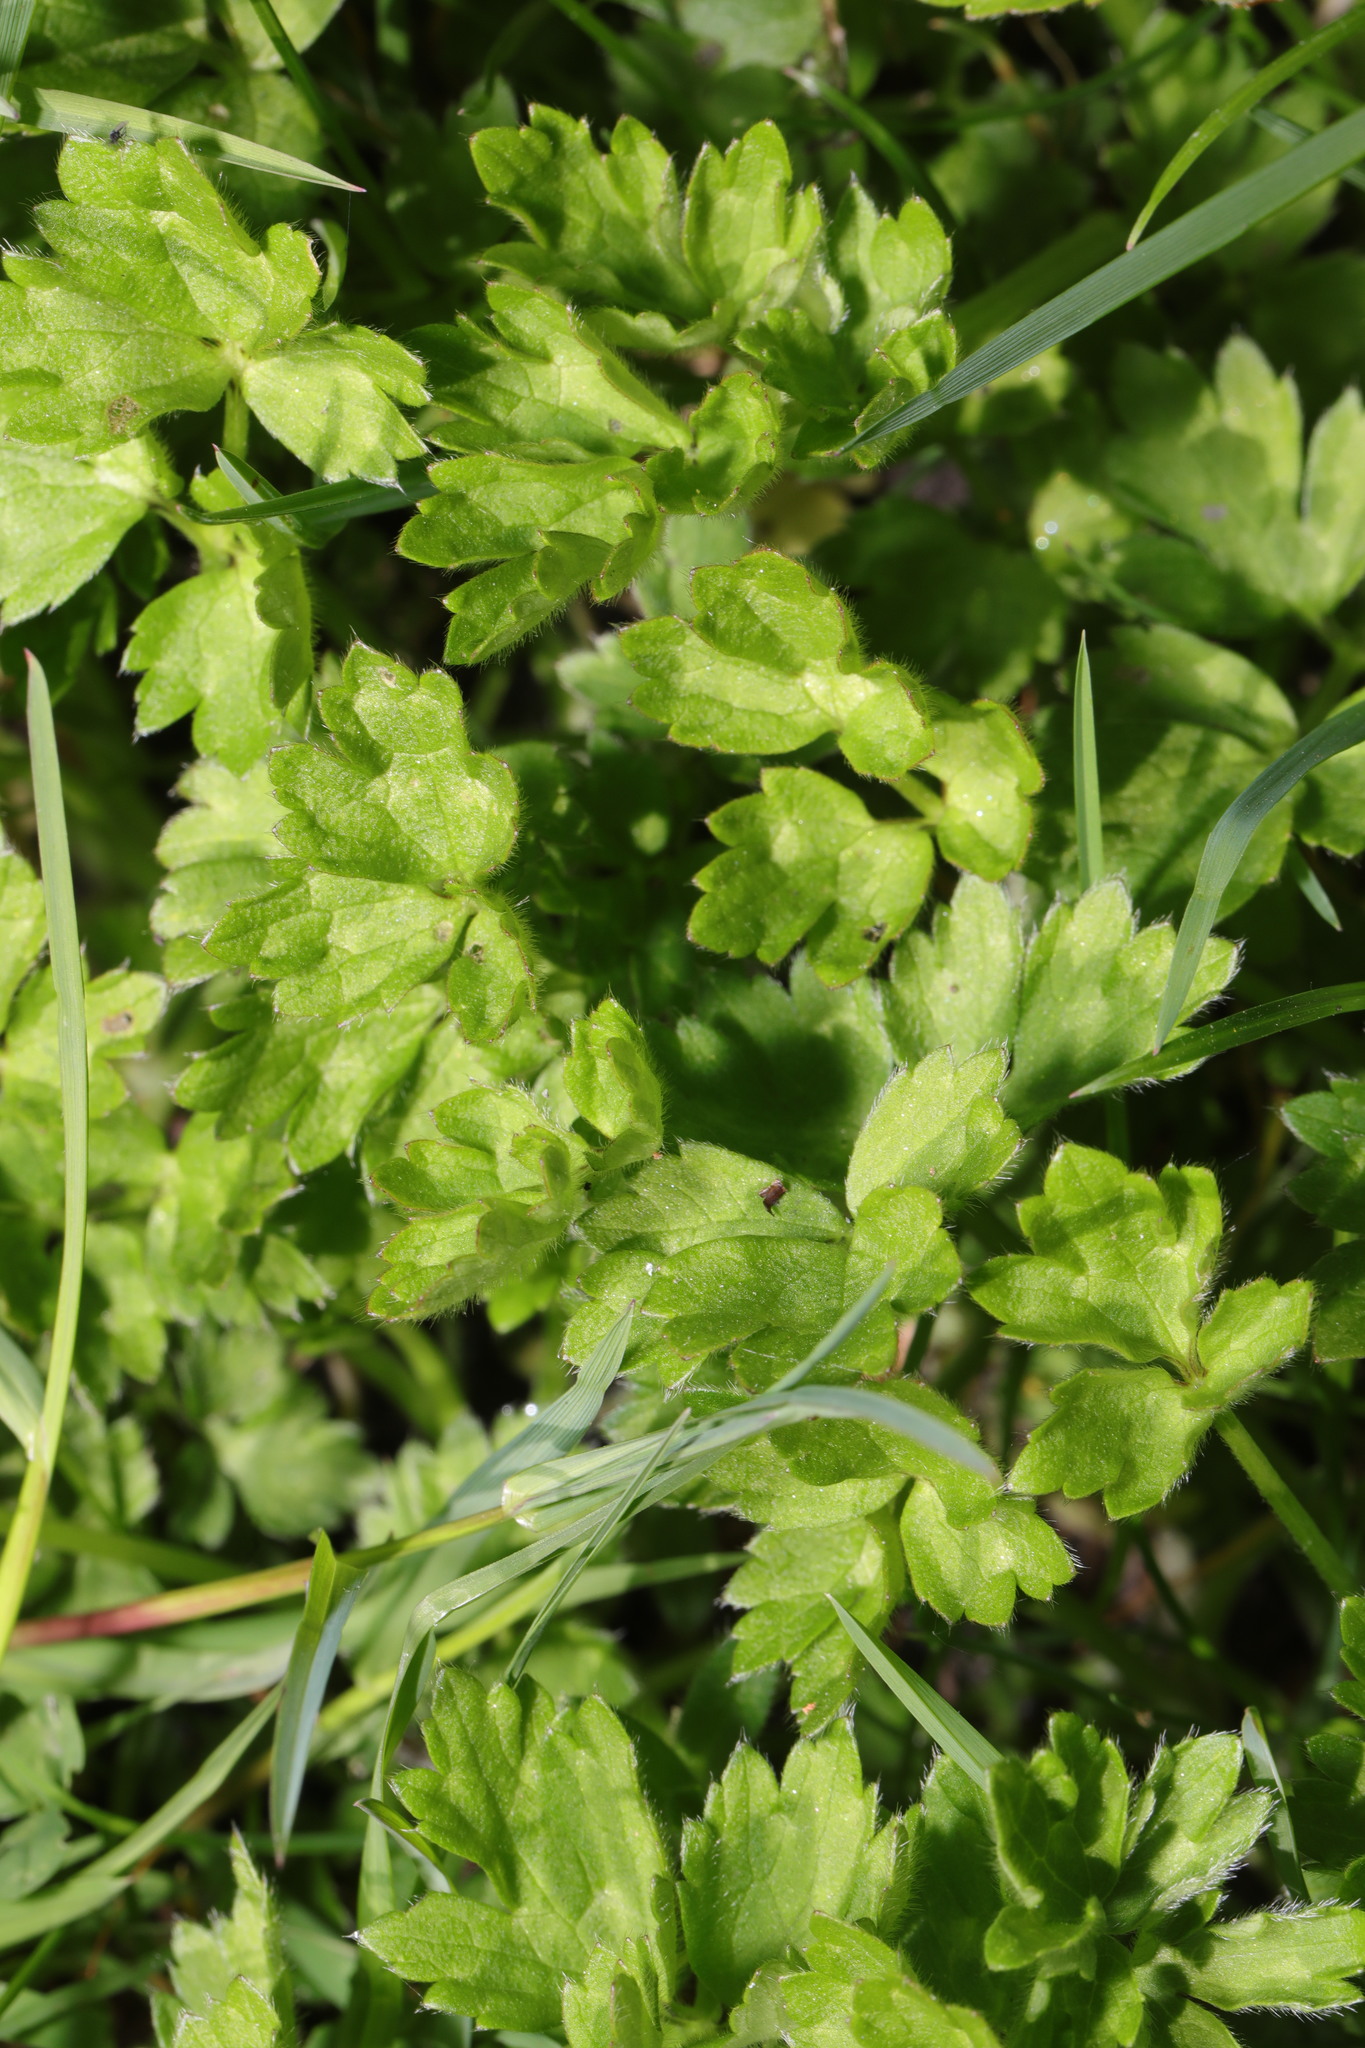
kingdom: Plantae
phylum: Tracheophyta
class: Magnoliopsida
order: Ranunculales
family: Ranunculaceae
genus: Ranunculus
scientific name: Ranunculus repens
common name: Creeping buttercup
